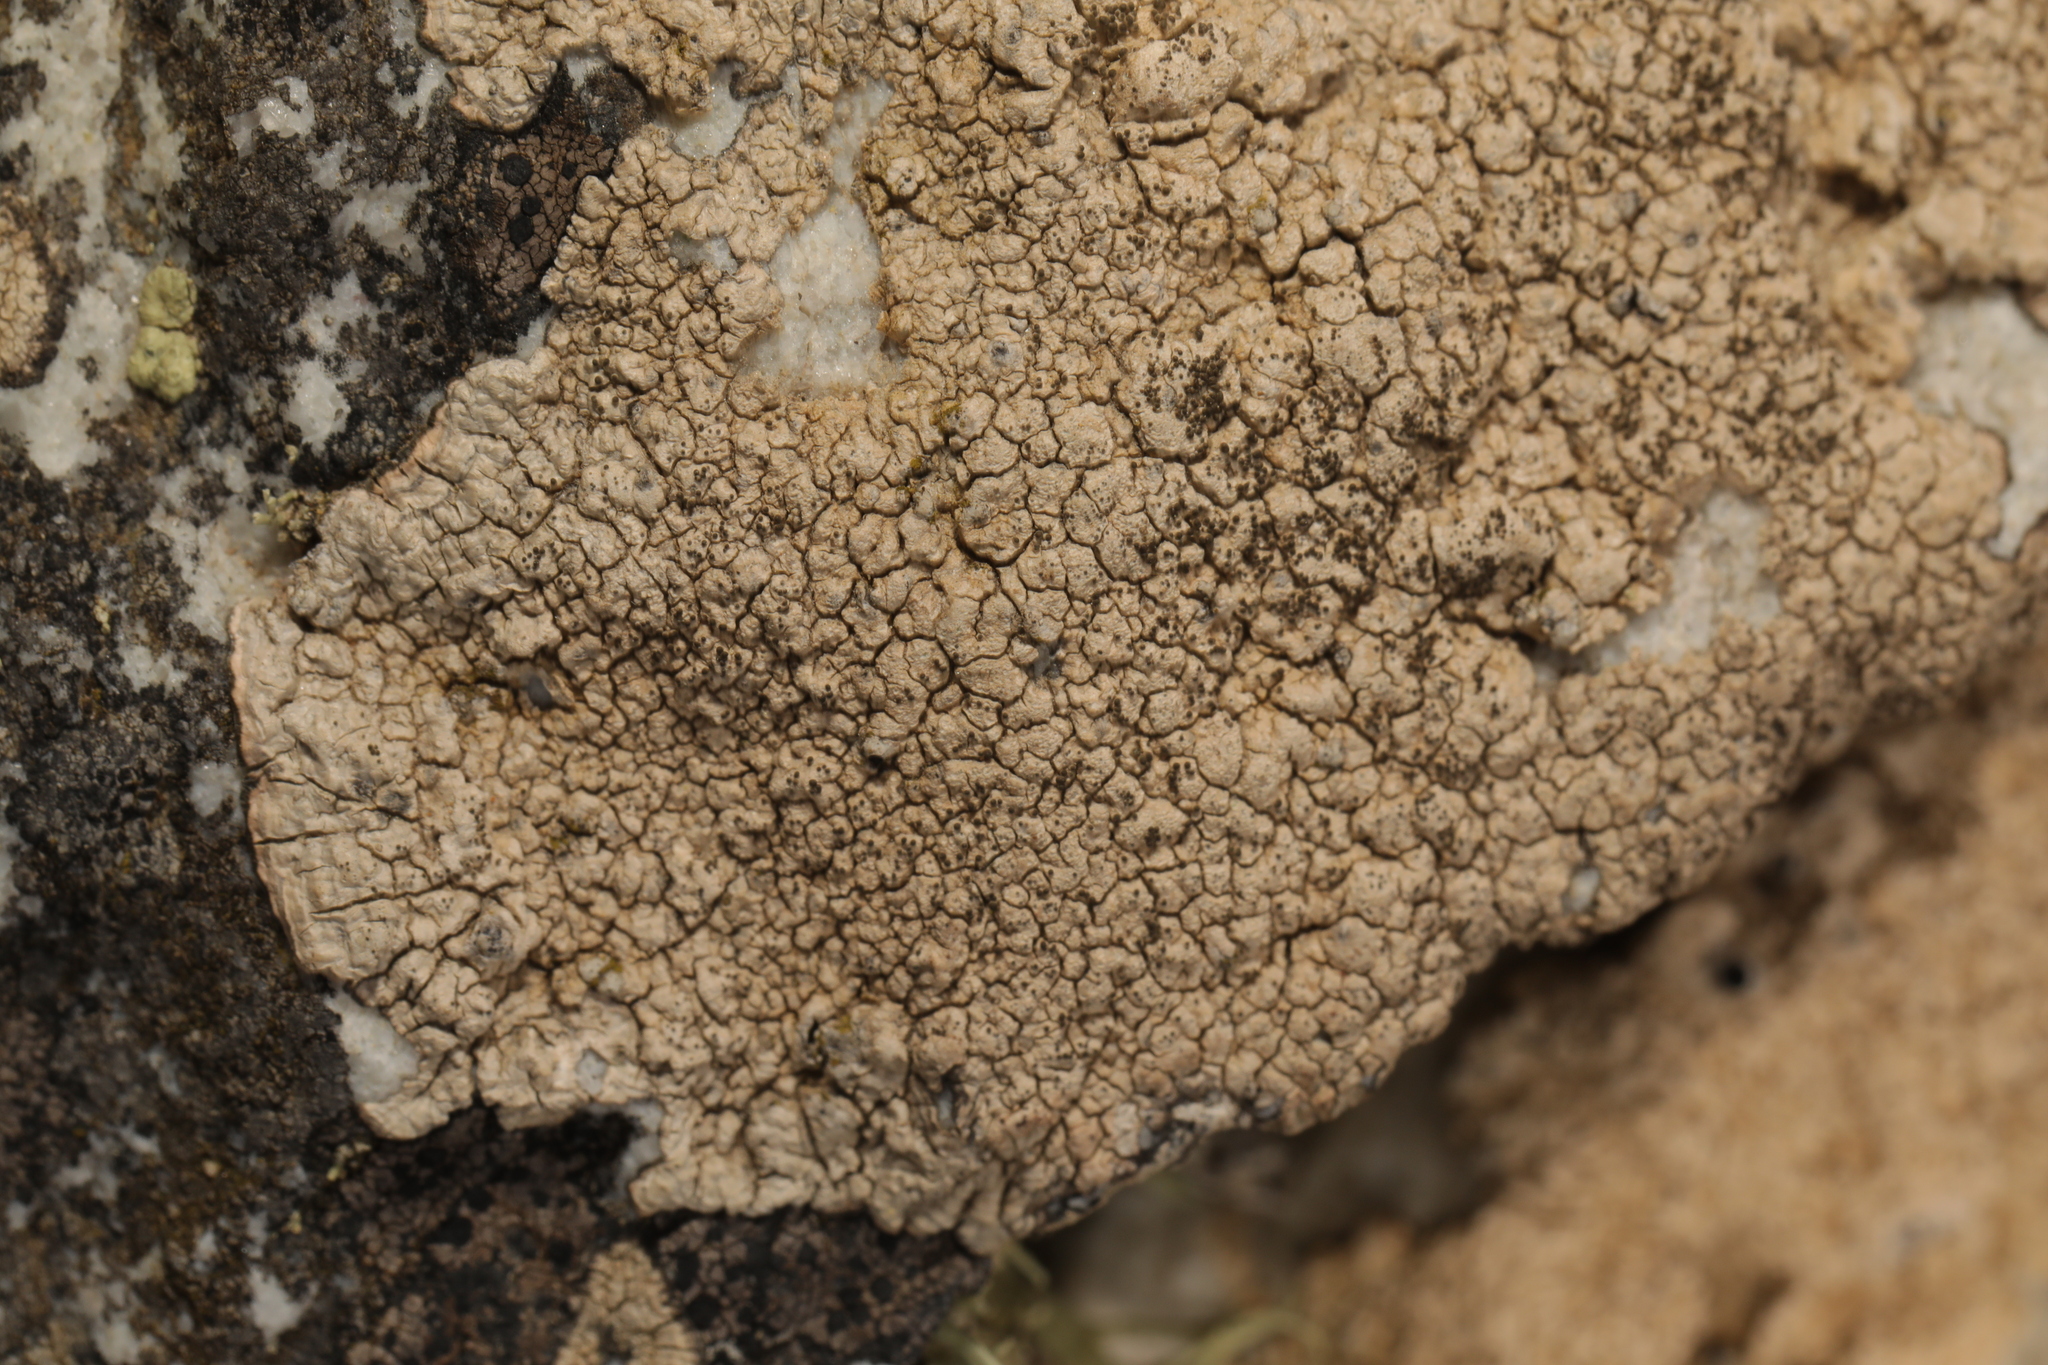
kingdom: Fungi
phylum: Ascomycota
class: Lecanoromycetes
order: Pertusariales
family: Pertusariaceae
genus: Pertusaria
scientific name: Pertusaria pseudocorallina
